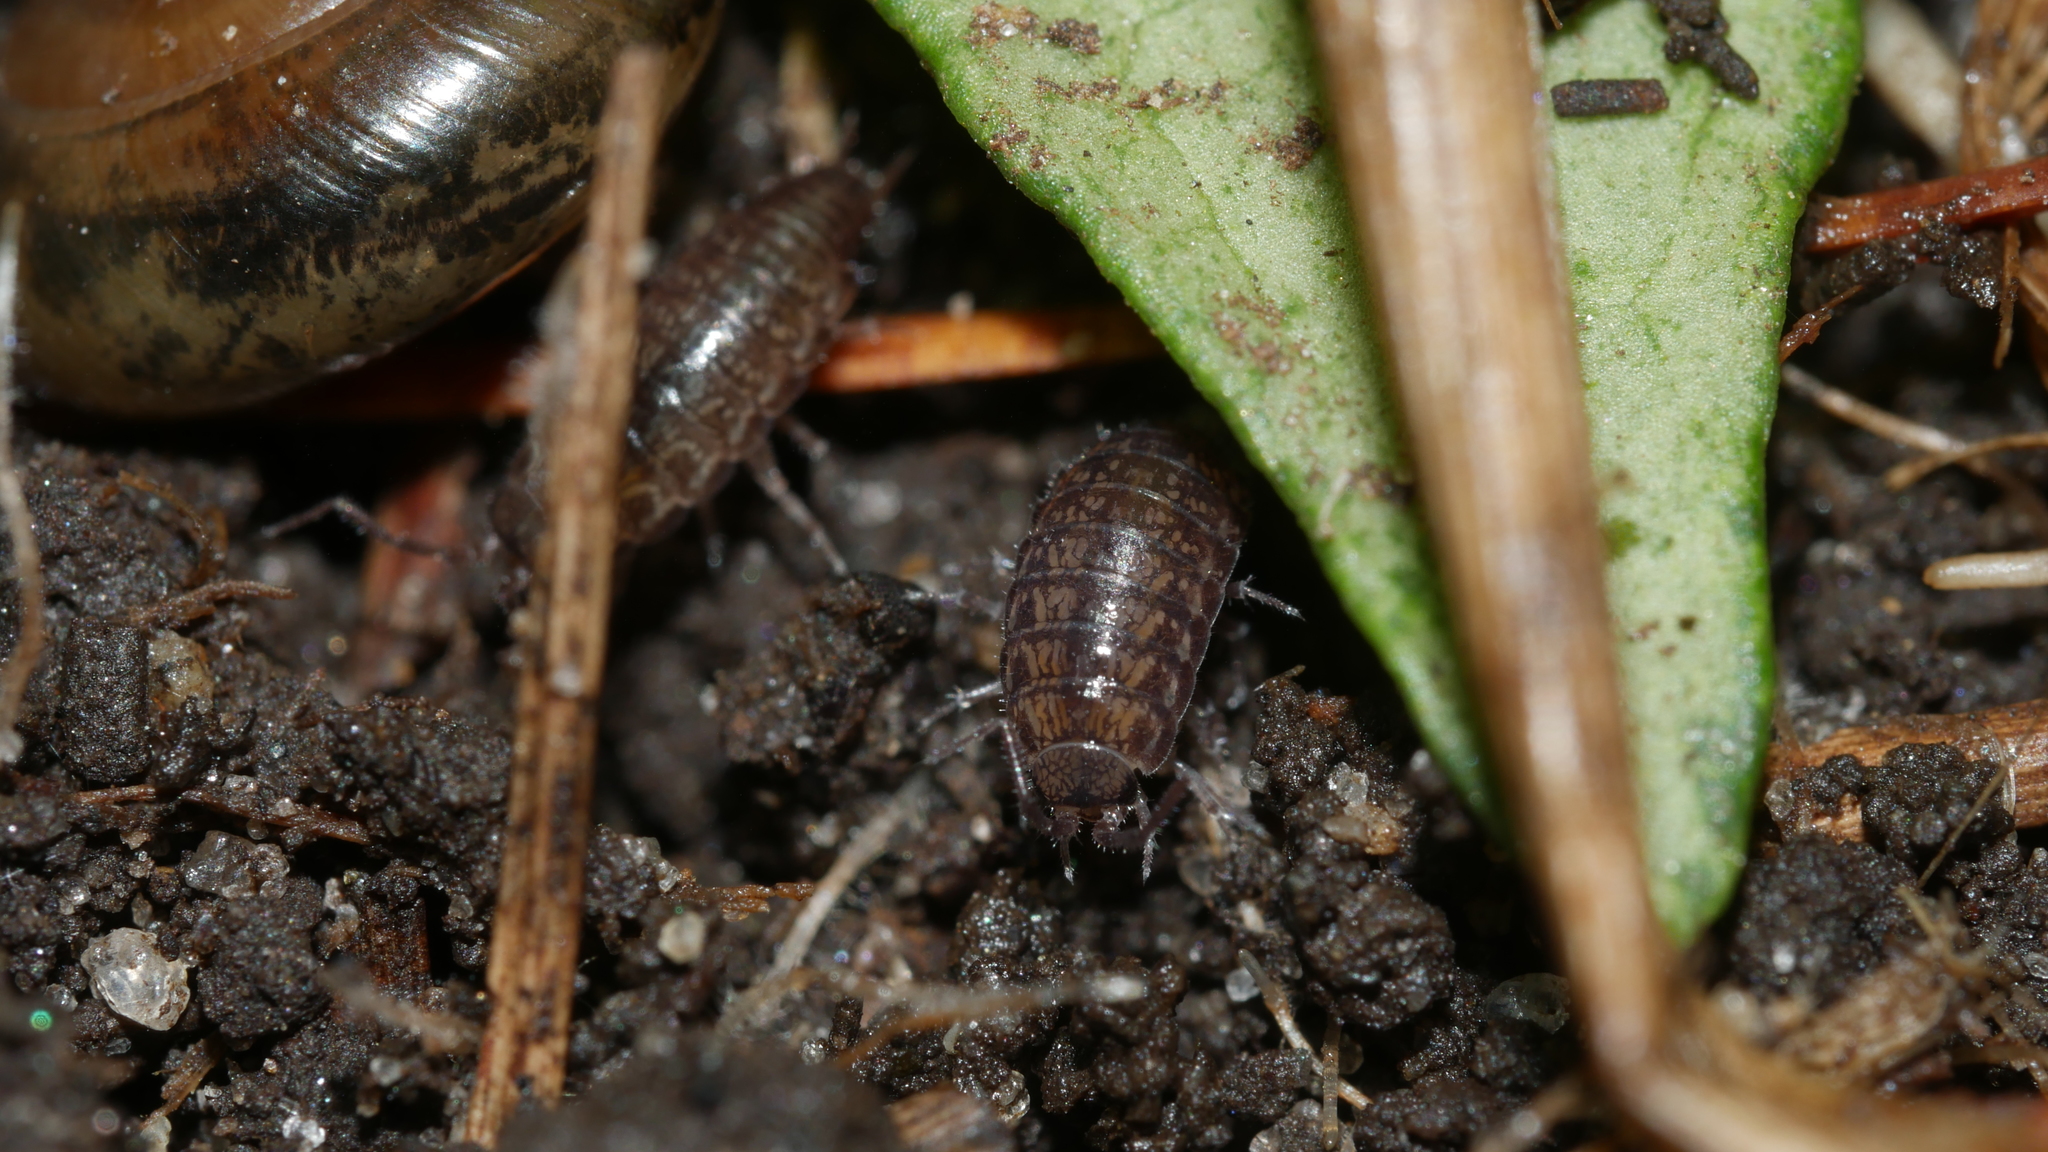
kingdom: Animalia
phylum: Arthropoda
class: Malacostraca
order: Isopoda
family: Philosciidae
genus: Chaetophiloscia
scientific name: Chaetophiloscia sicula
